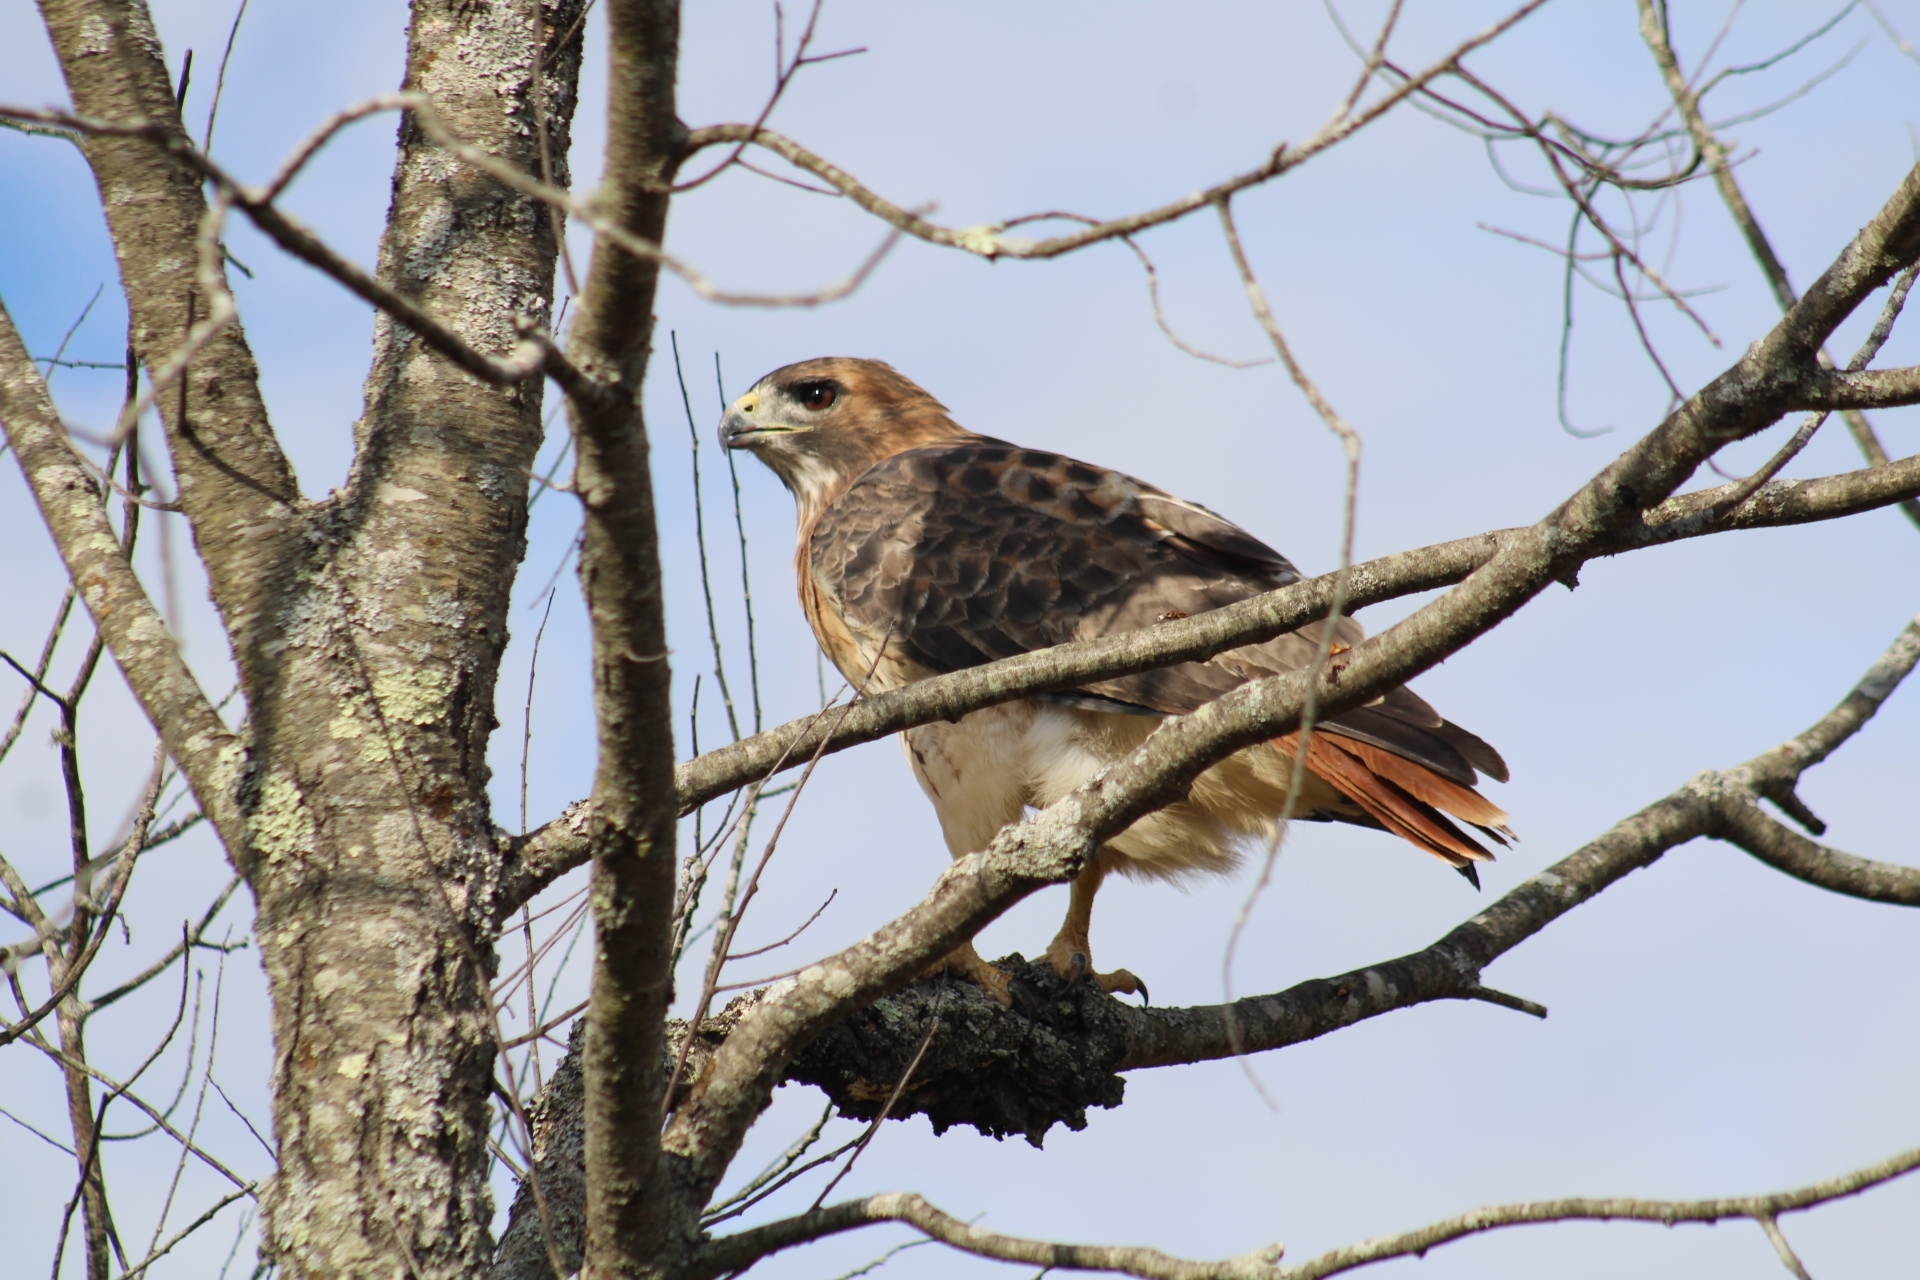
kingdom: Animalia
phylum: Chordata
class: Aves
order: Accipitriformes
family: Accipitridae
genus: Buteo
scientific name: Buteo jamaicensis
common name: Red-tailed hawk
